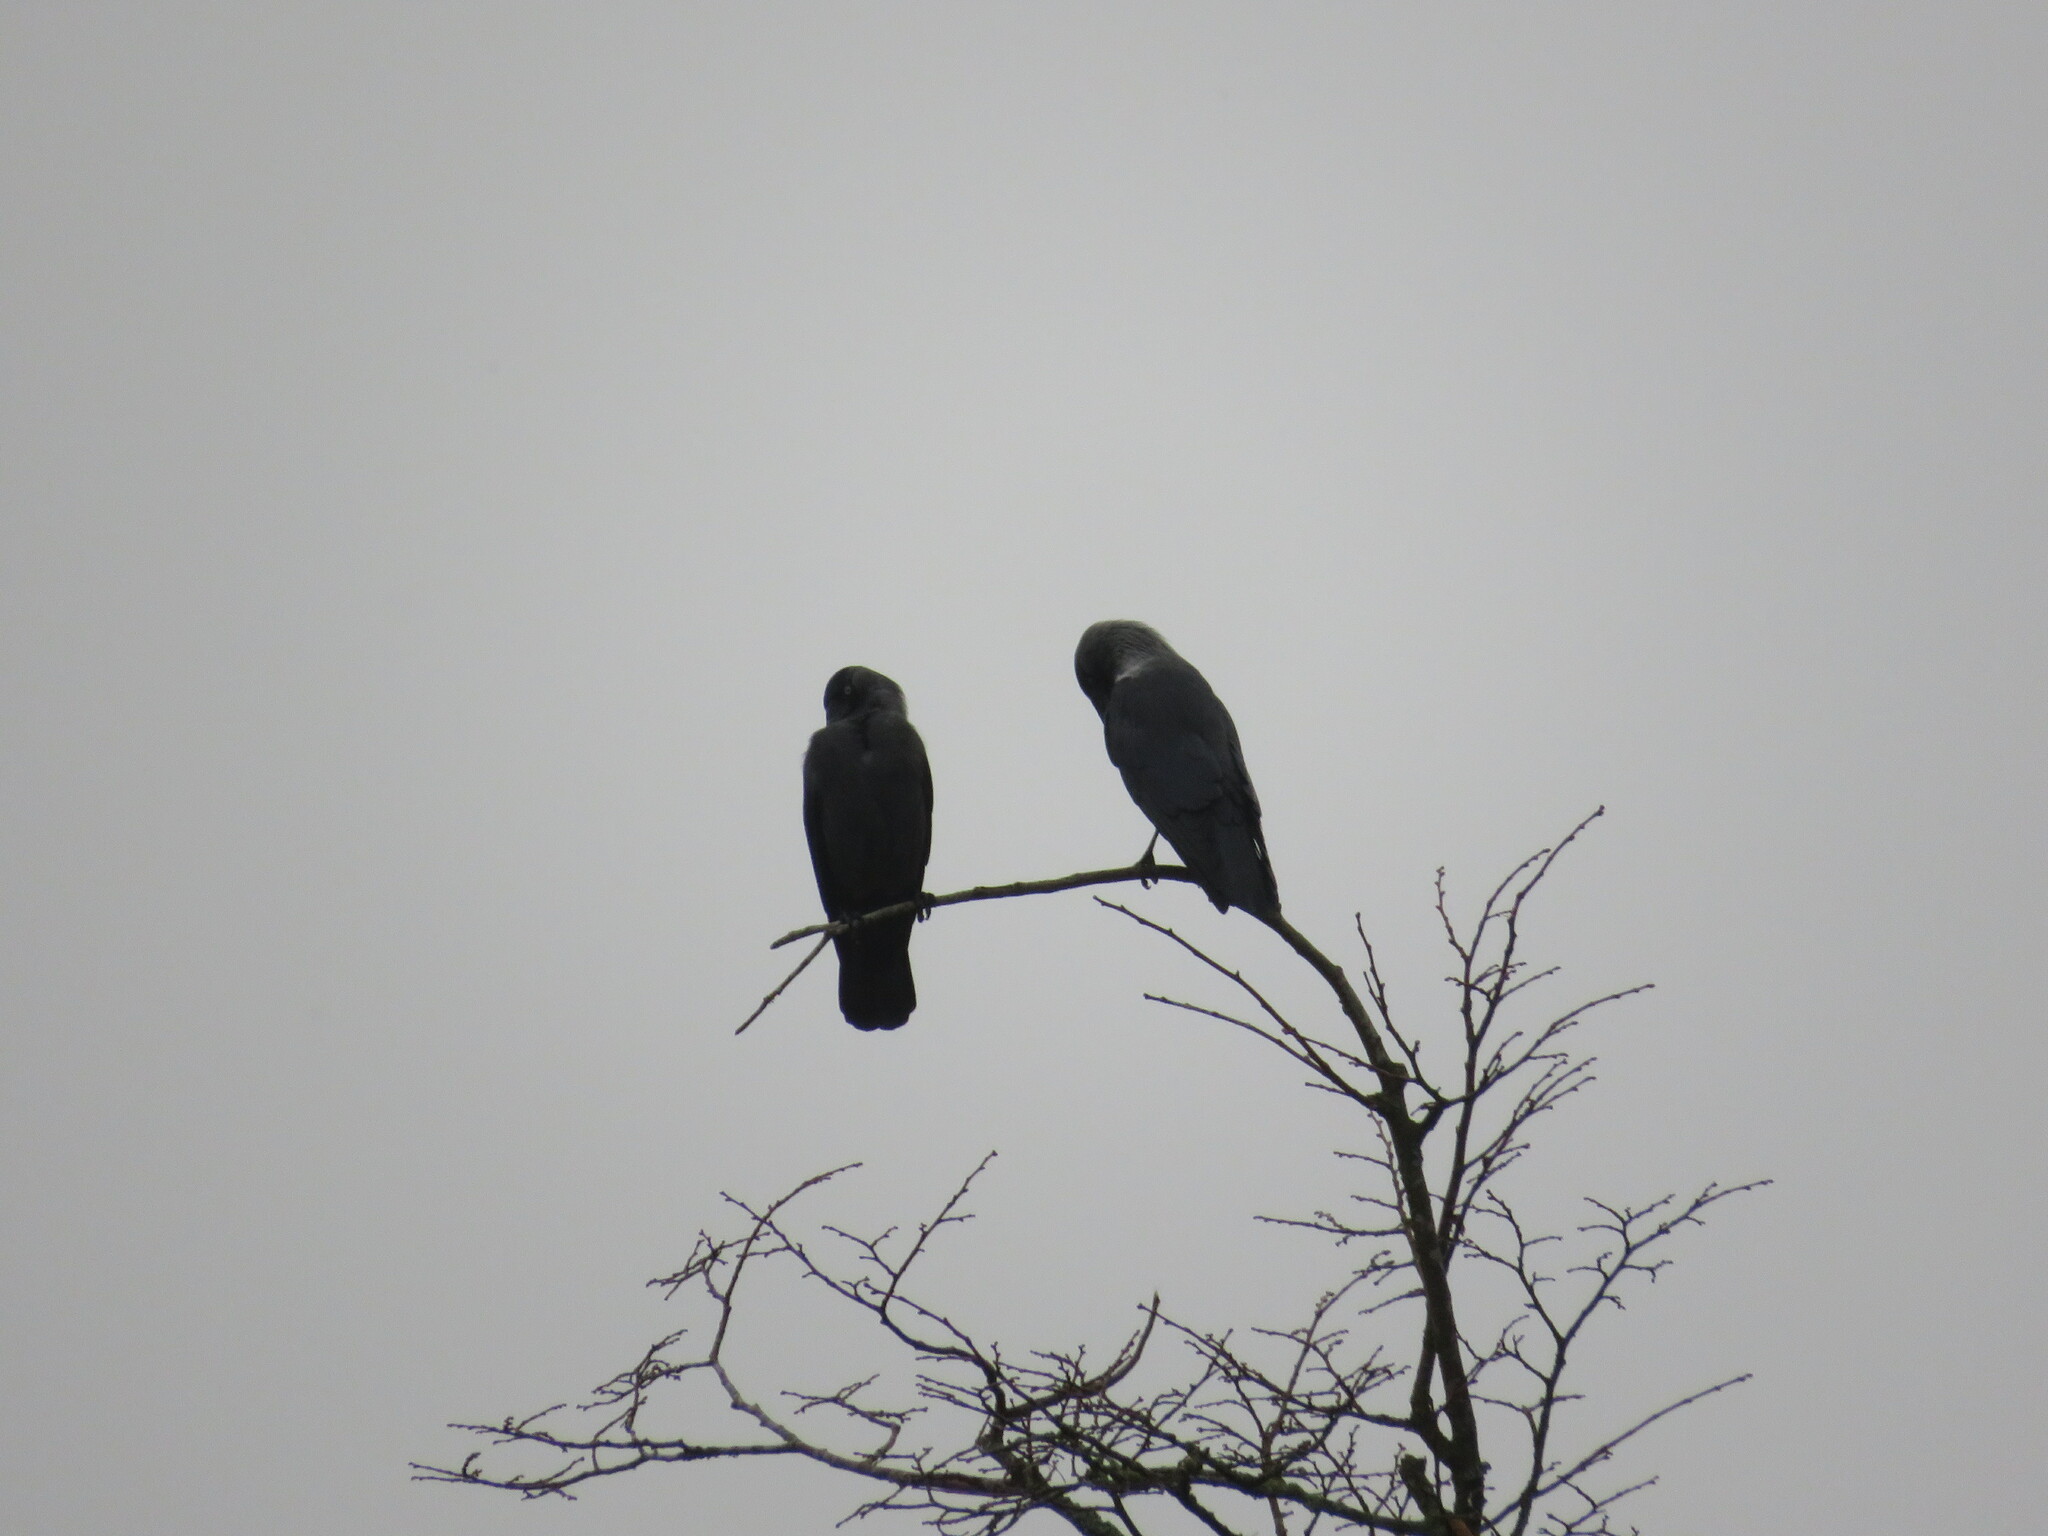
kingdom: Animalia
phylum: Chordata
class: Aves
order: Passeriformes
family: Corvidae
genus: Coloeus
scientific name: Coloeus monedula
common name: Western jackdaw
